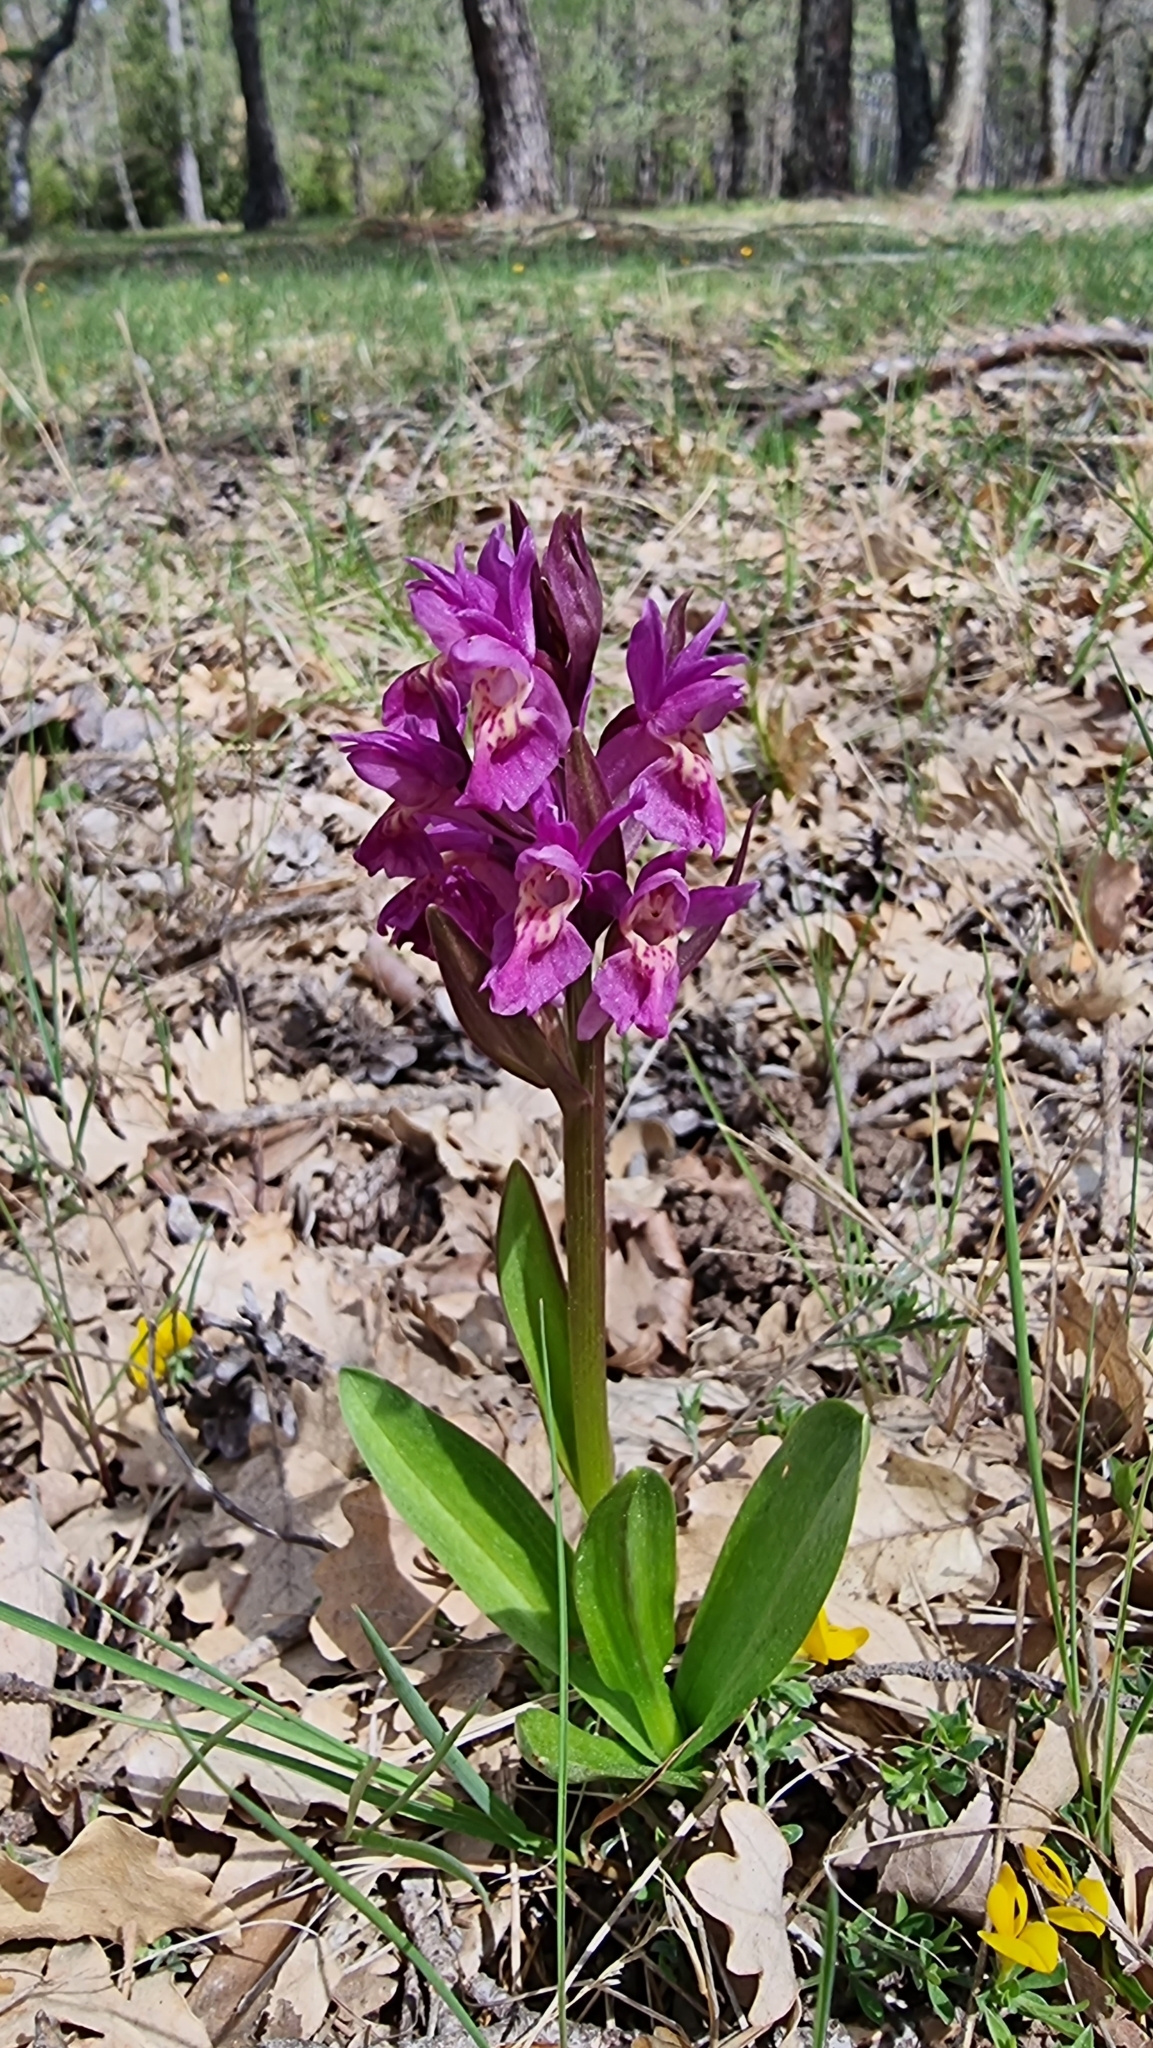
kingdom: Plantae
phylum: Tracheophyta
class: Liliopsida
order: Asparagales
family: Orchidaceae
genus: Dactylorhiza
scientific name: Dactylorhiza sambucina
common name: Elder-flowered orchid
